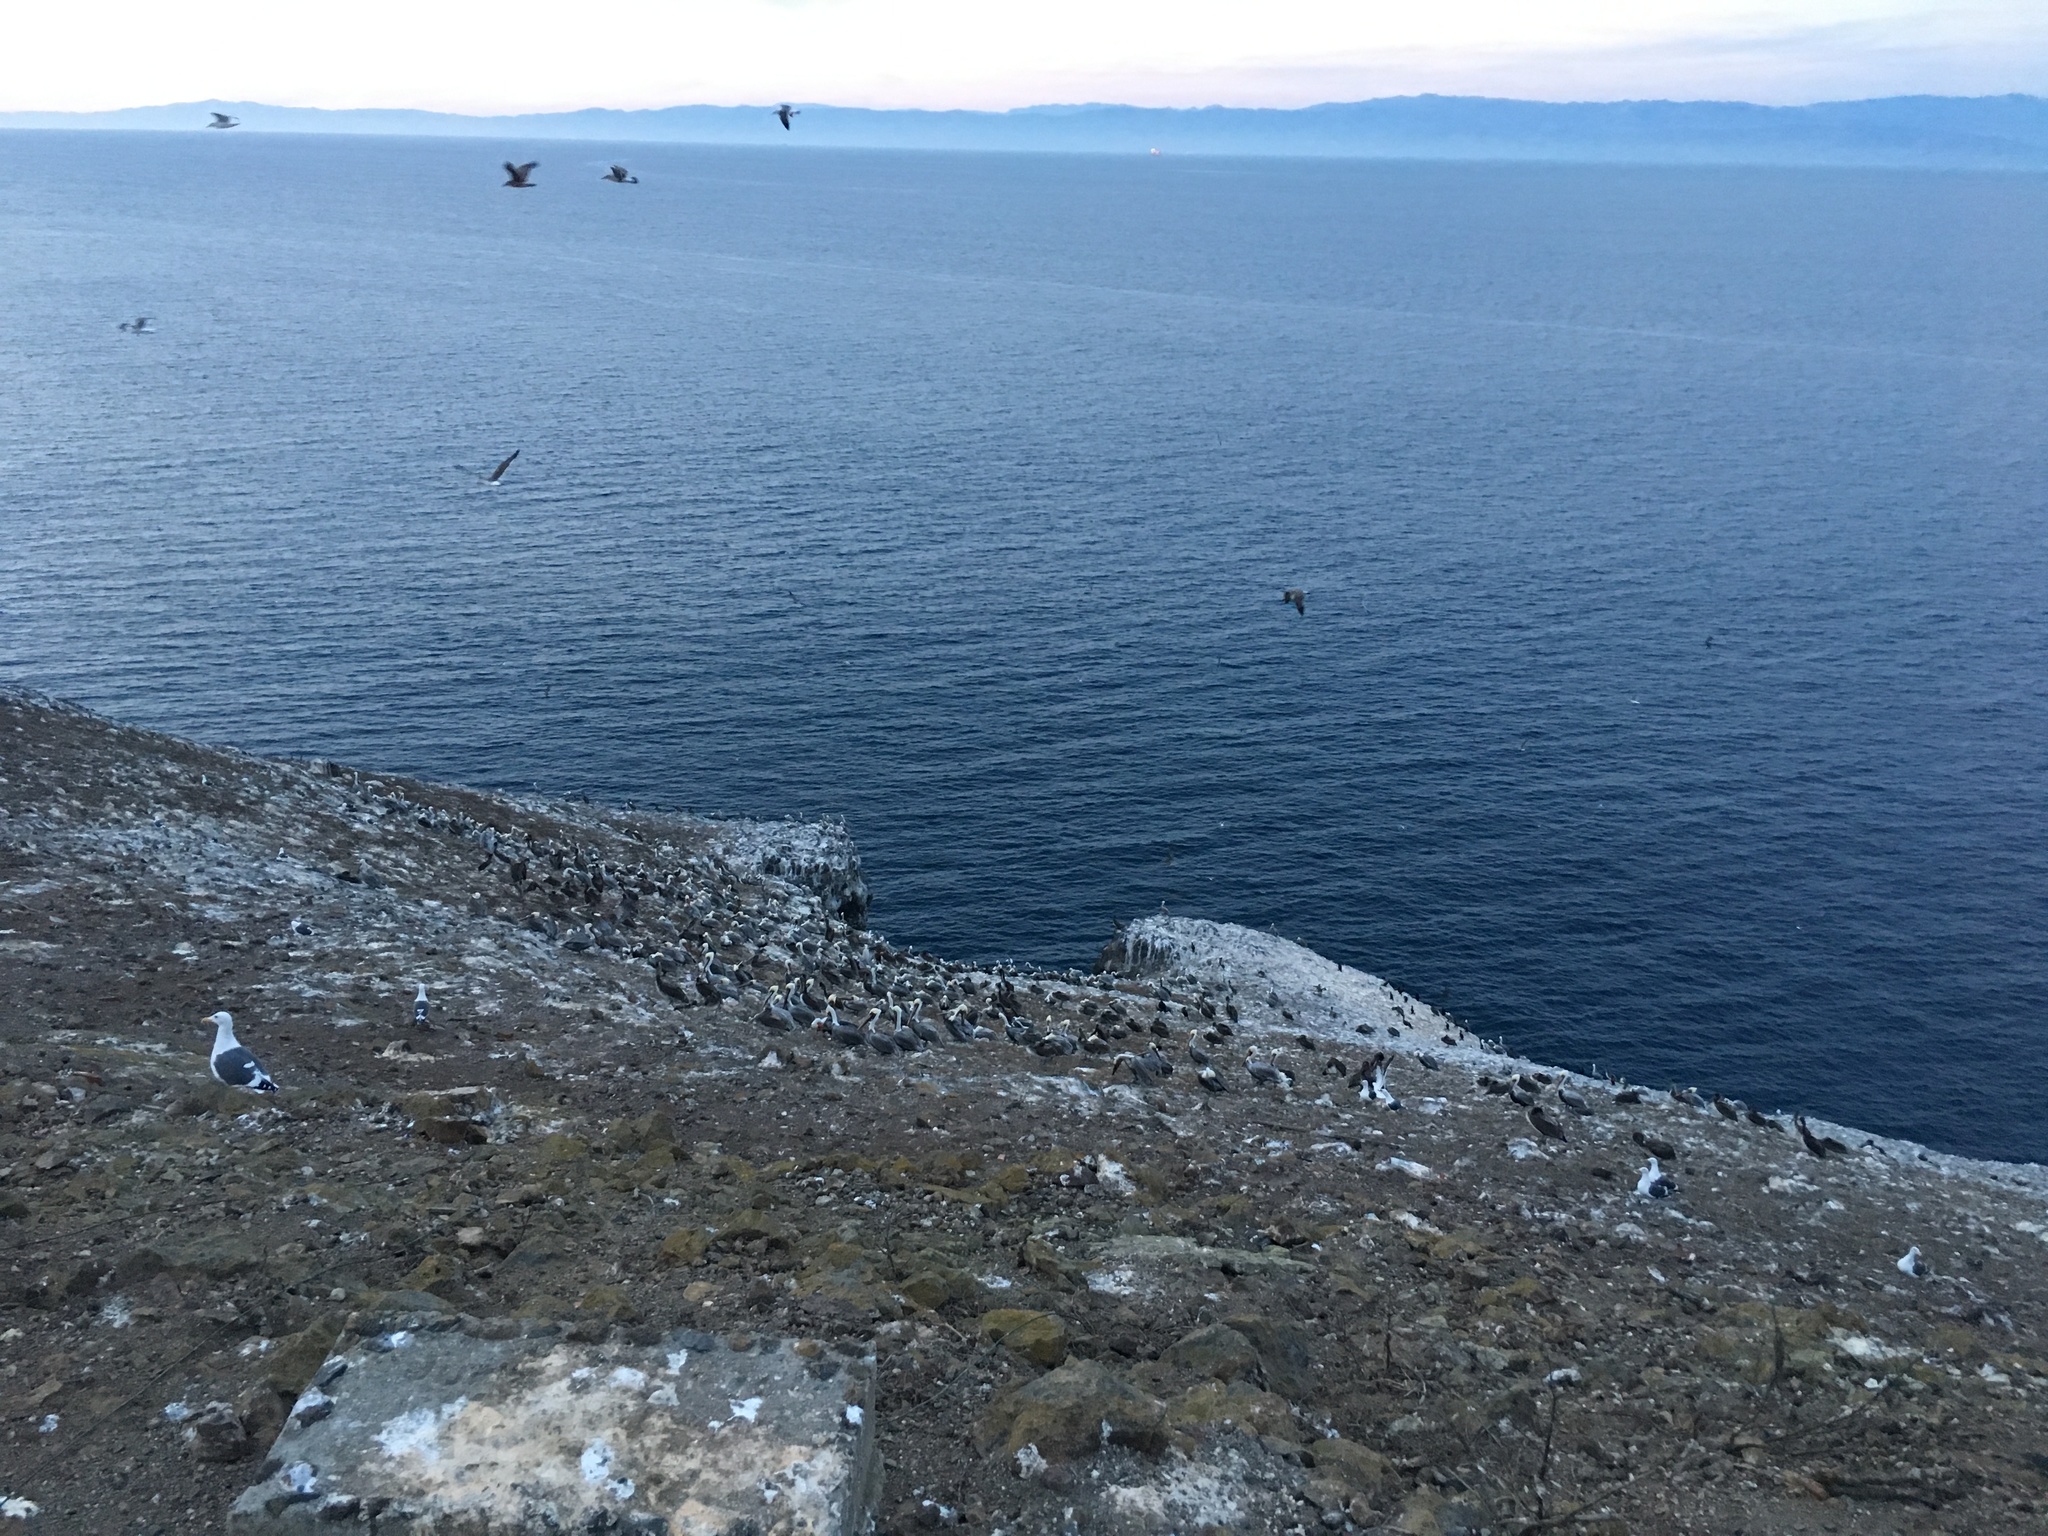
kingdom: Animalia
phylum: Chordata
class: Aves
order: Pelecaniformes
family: Pelecanidae
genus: Pelecanus
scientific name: Pelecanus occidentalis
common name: Brown pelican
